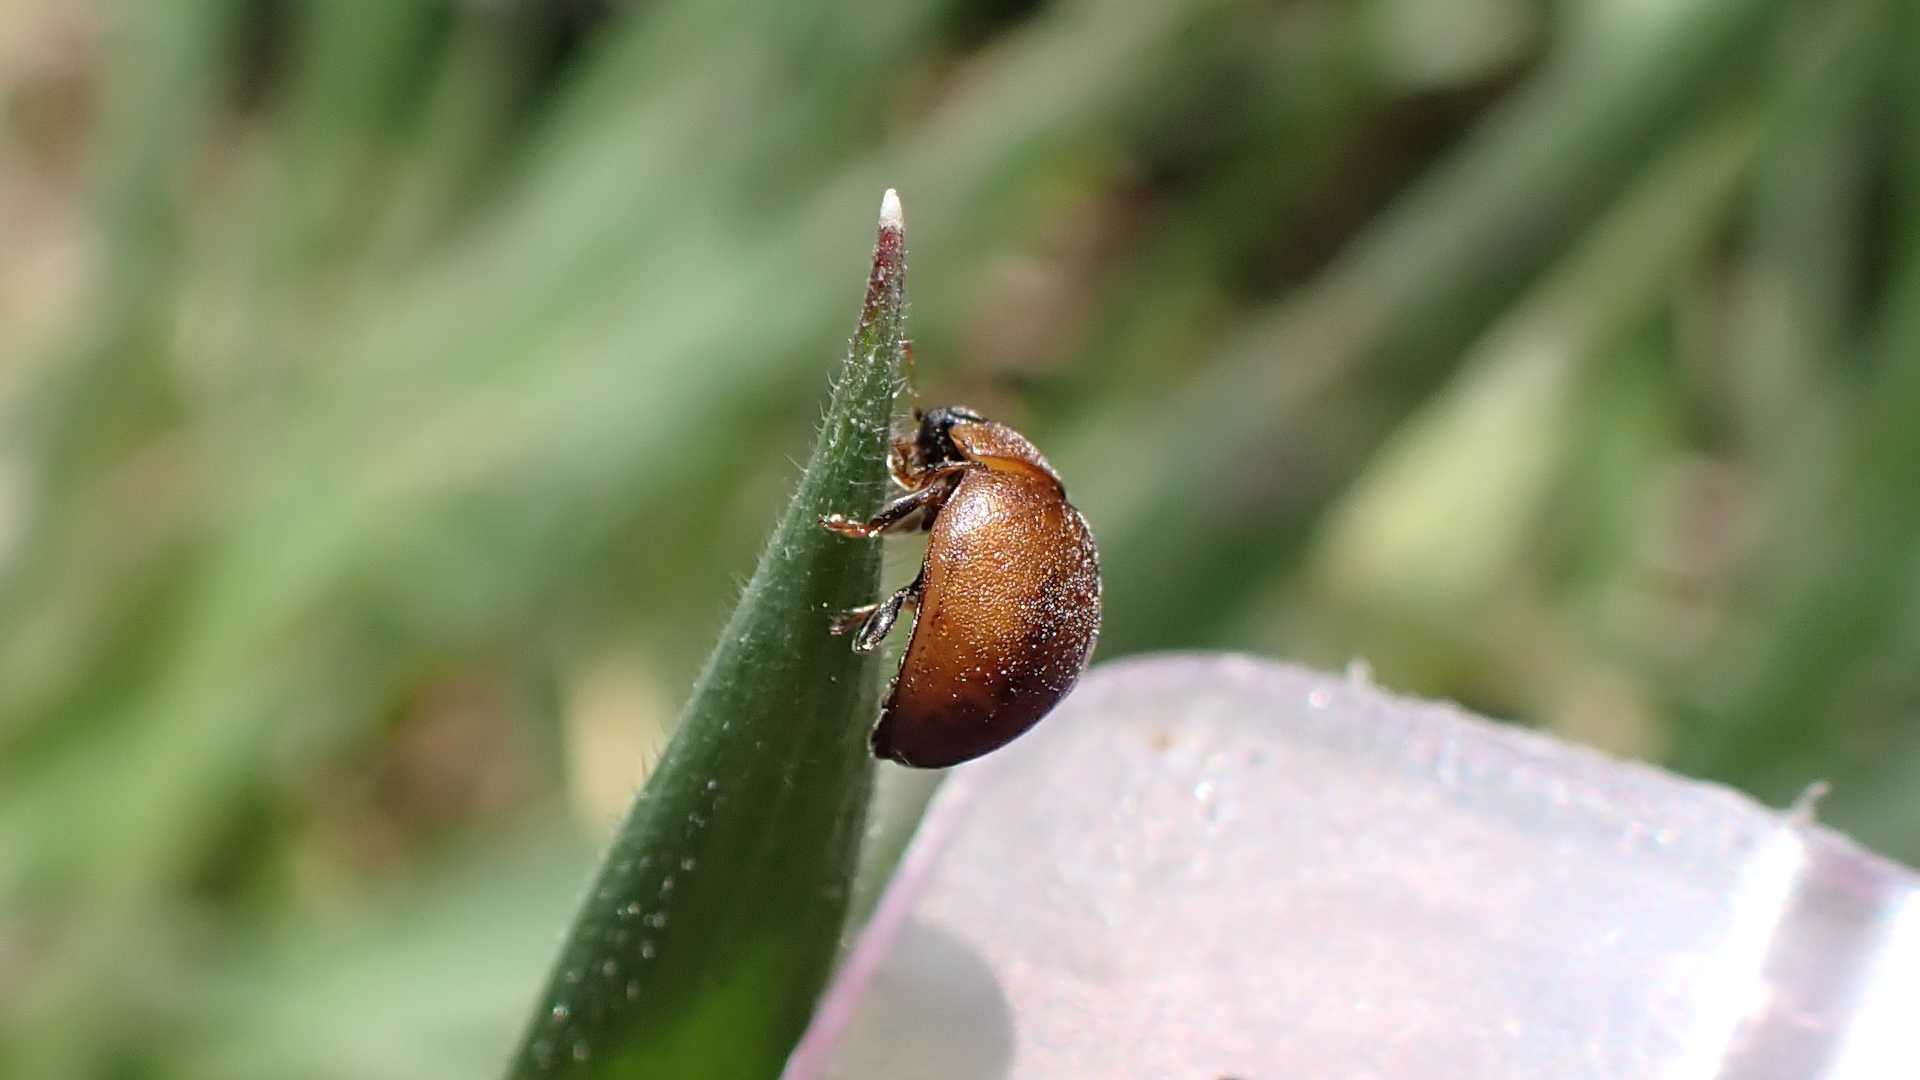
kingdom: Animalia
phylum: Arthropoda
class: Insecta
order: Coleoptera
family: Coccinellidae
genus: Cynegetis
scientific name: Cynegetis impunctata
